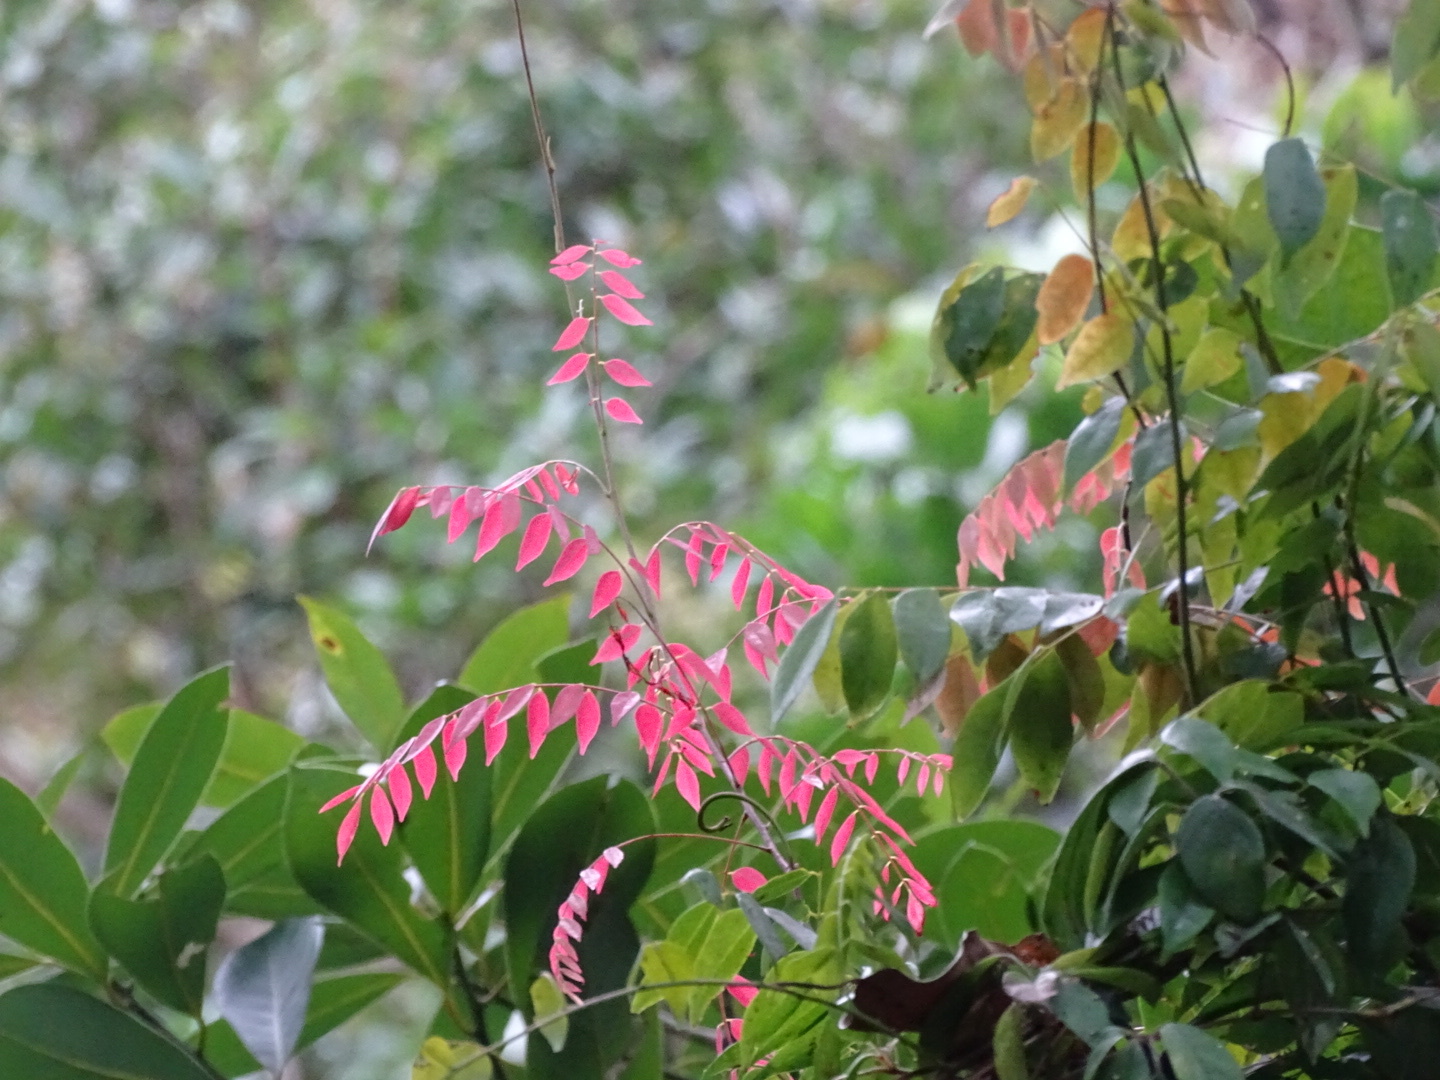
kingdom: Plantae
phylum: Tracheophyta
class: Magnoliopsida
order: Oxalidales
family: Connaraceae
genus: Rourea
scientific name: Rourea microphylla
